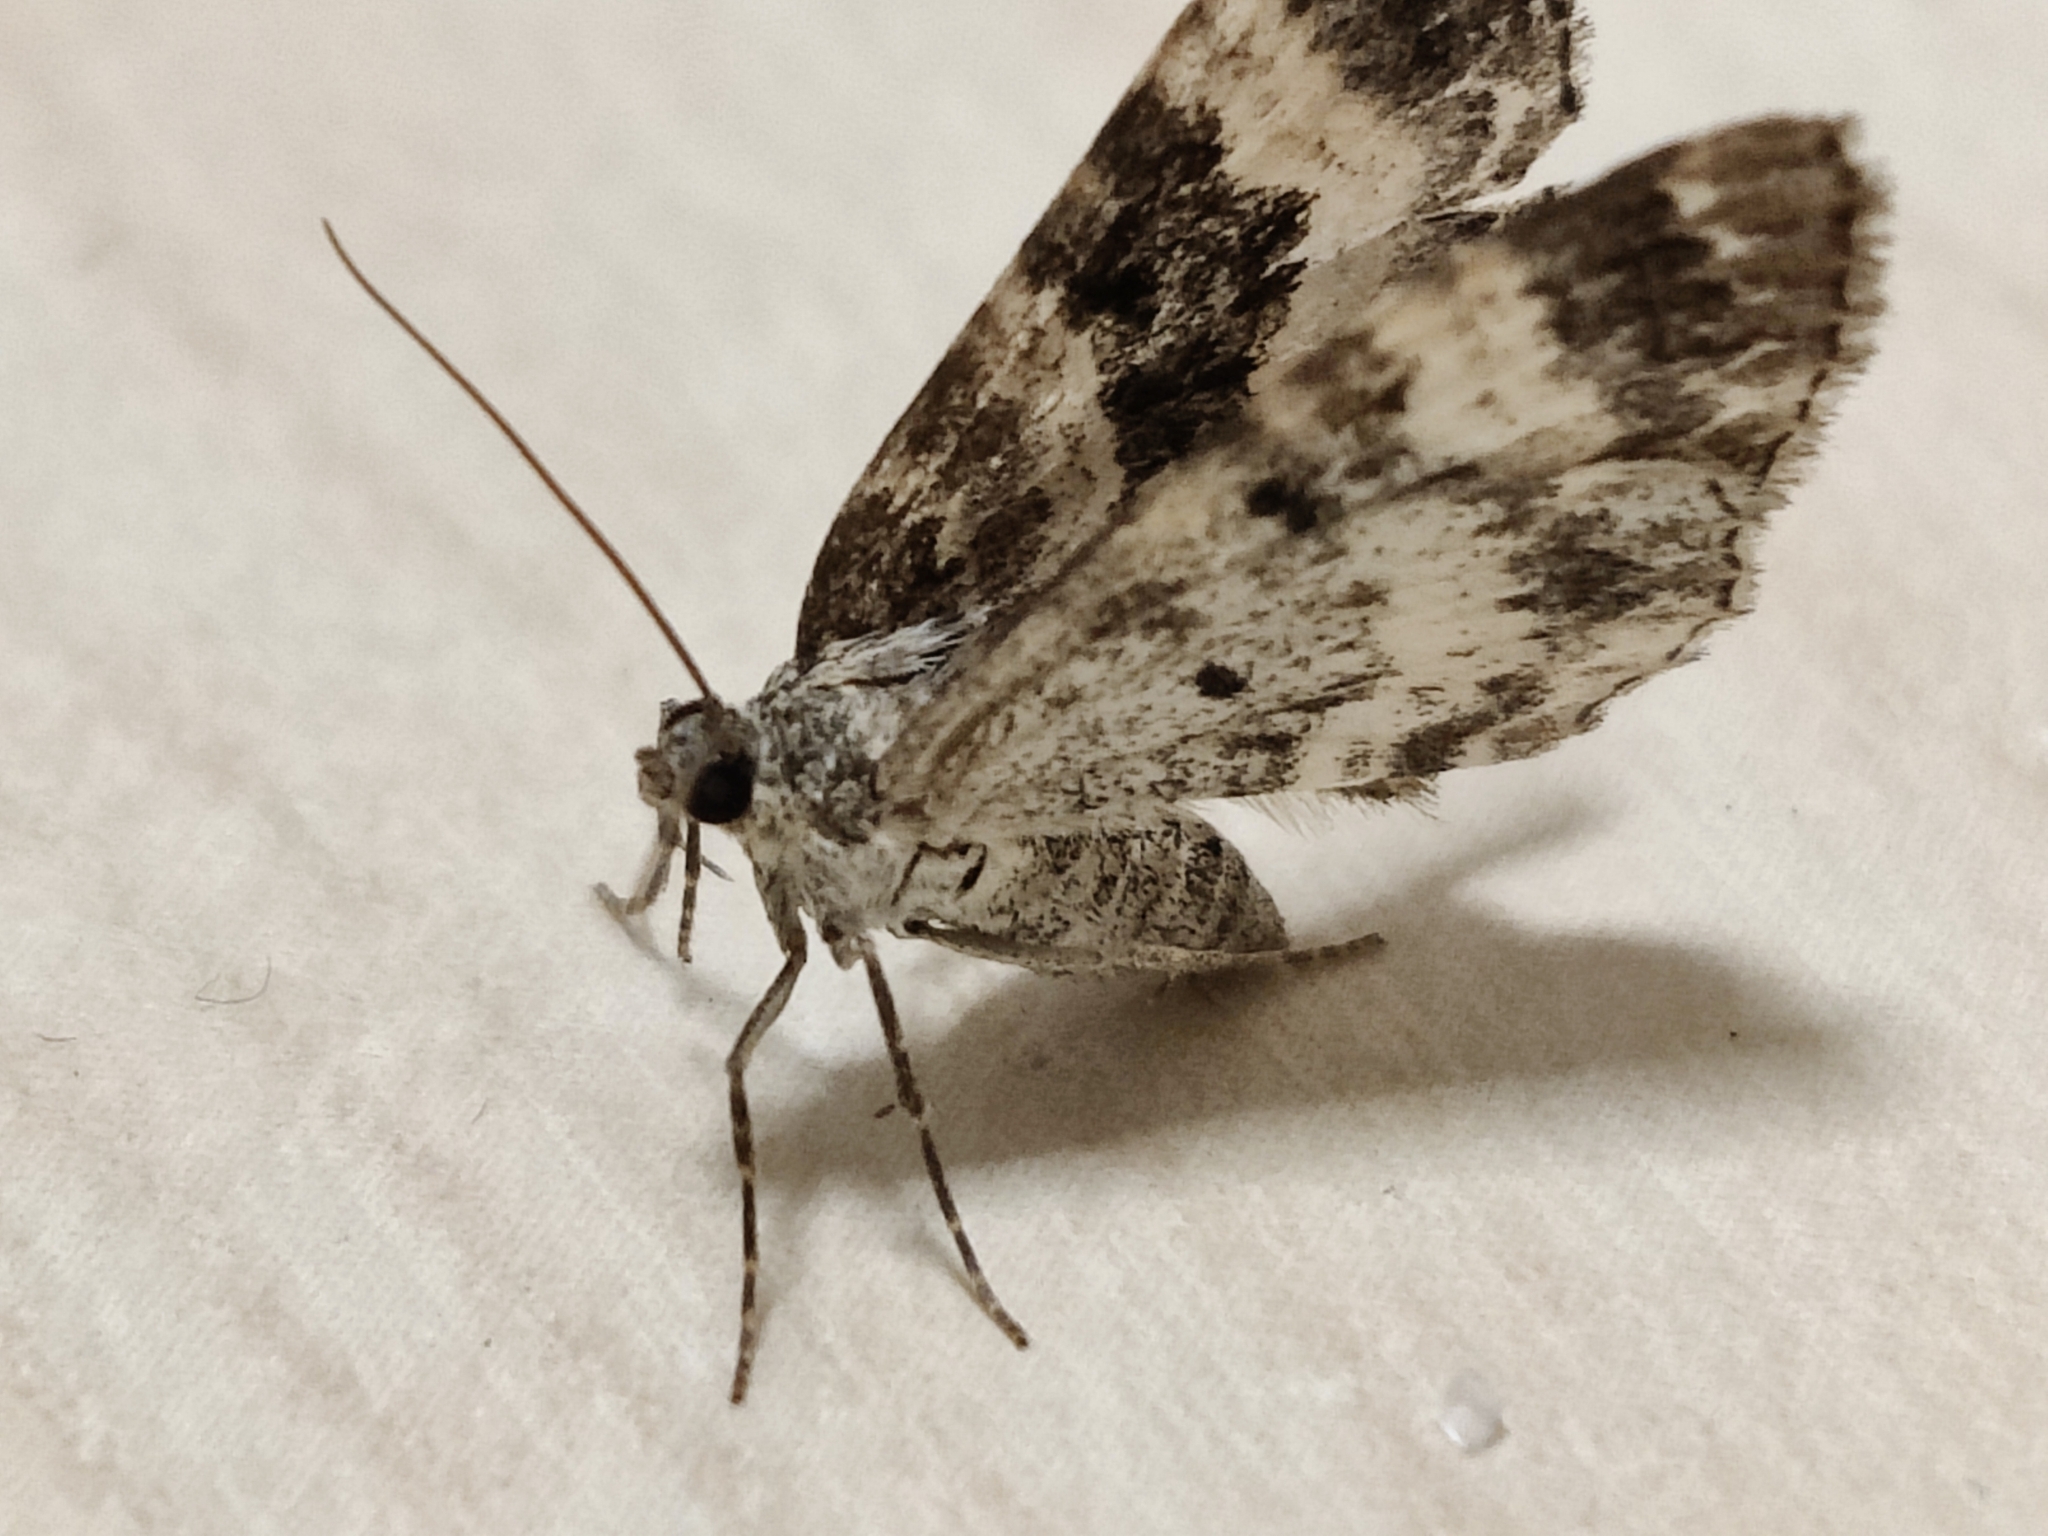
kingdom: Animalia
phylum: Arthropoda
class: Insecta
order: Lepidoptera
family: Geometridae
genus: Epirrhoe
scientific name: Epirrhoe alternata
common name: Common carpet
